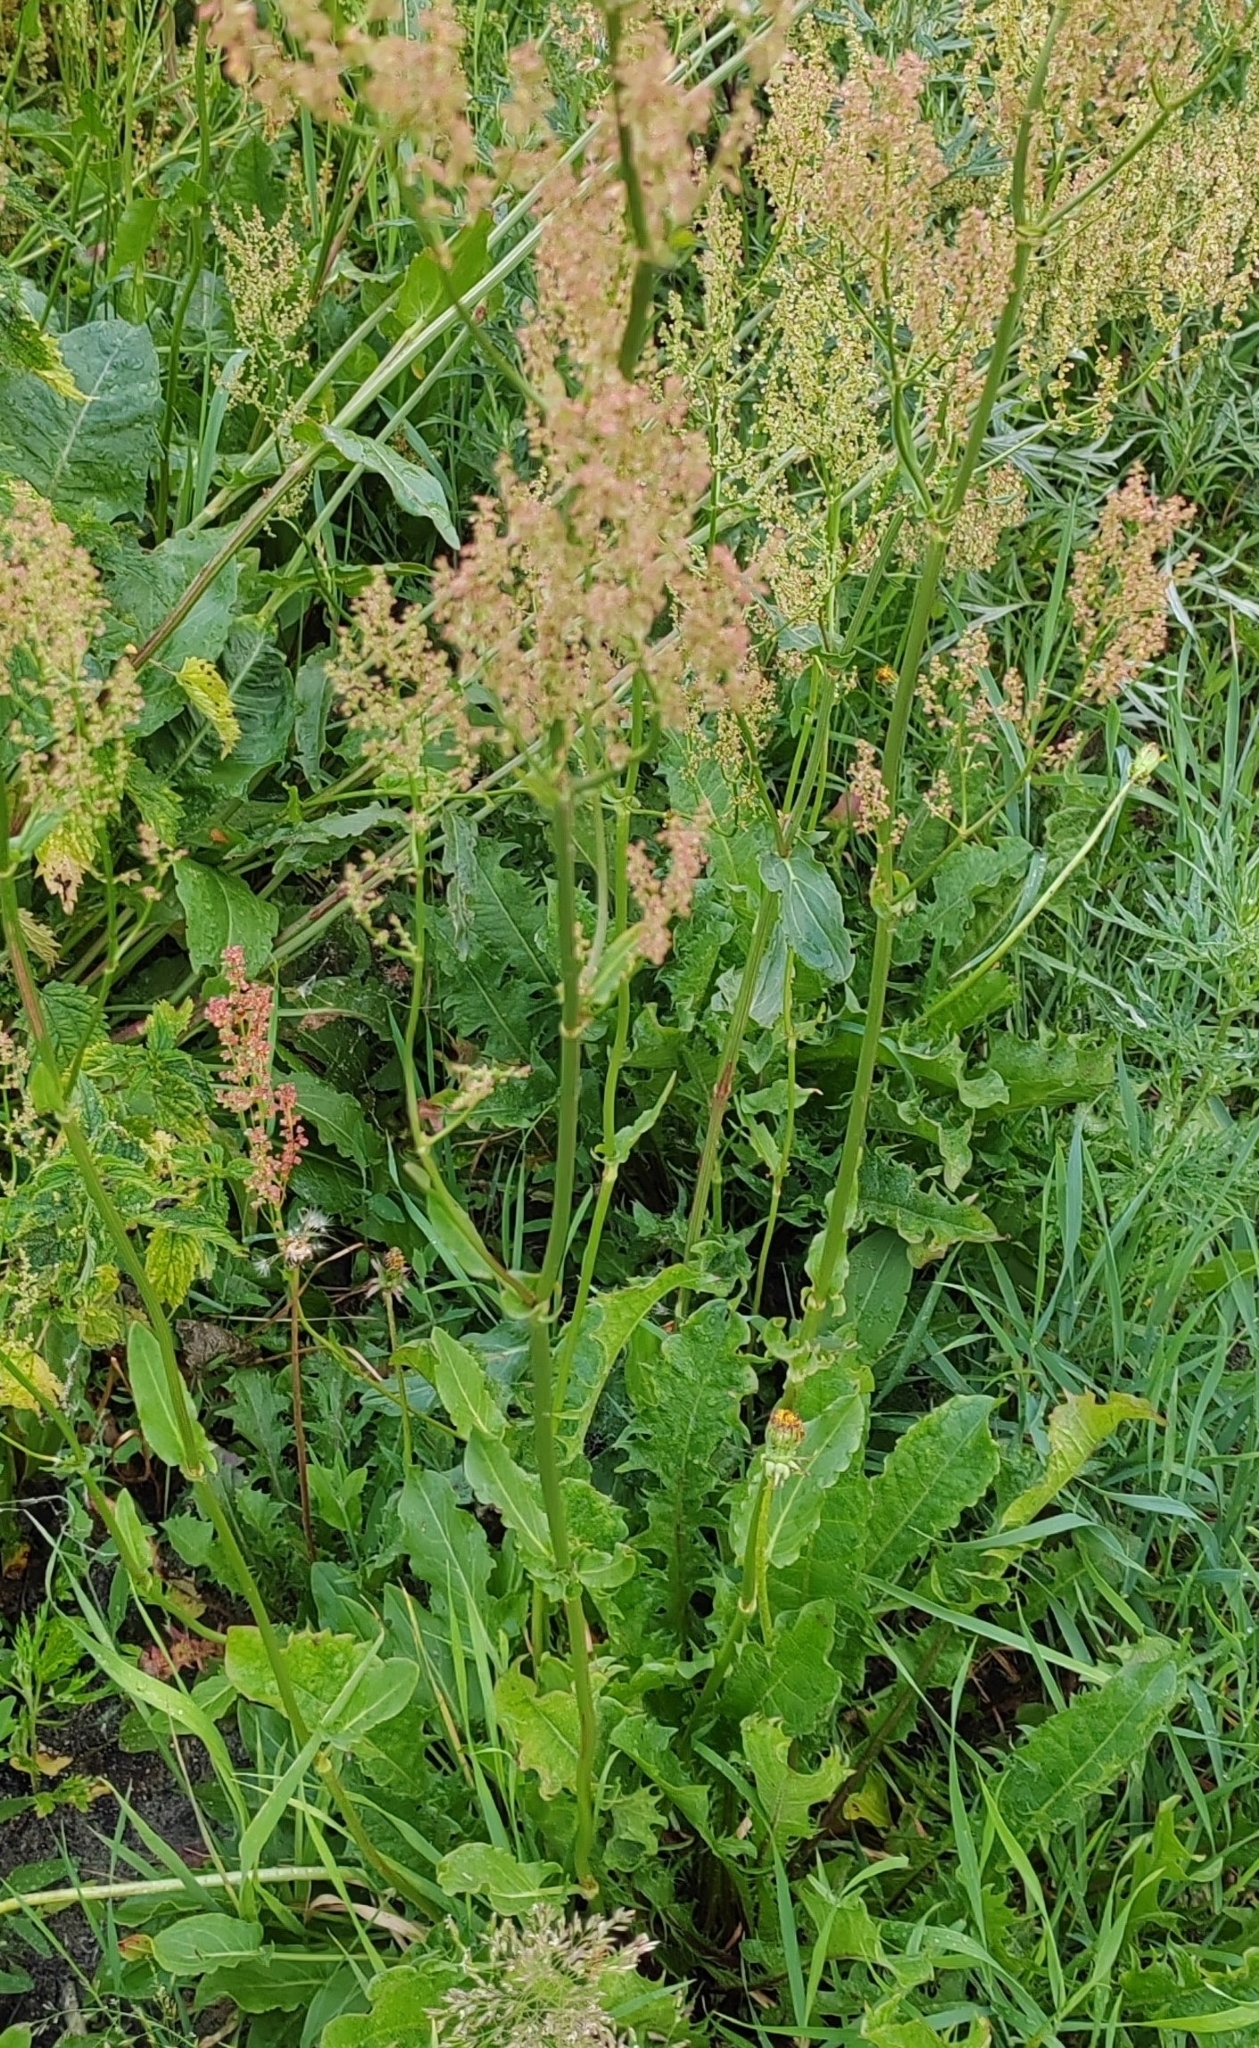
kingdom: Plantae
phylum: Tracheophyta
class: Magnoliopsida
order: Caryophyllales
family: Polygonaceae
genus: Rumex
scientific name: Rumex thyrsiflorus
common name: Garden sorrel
